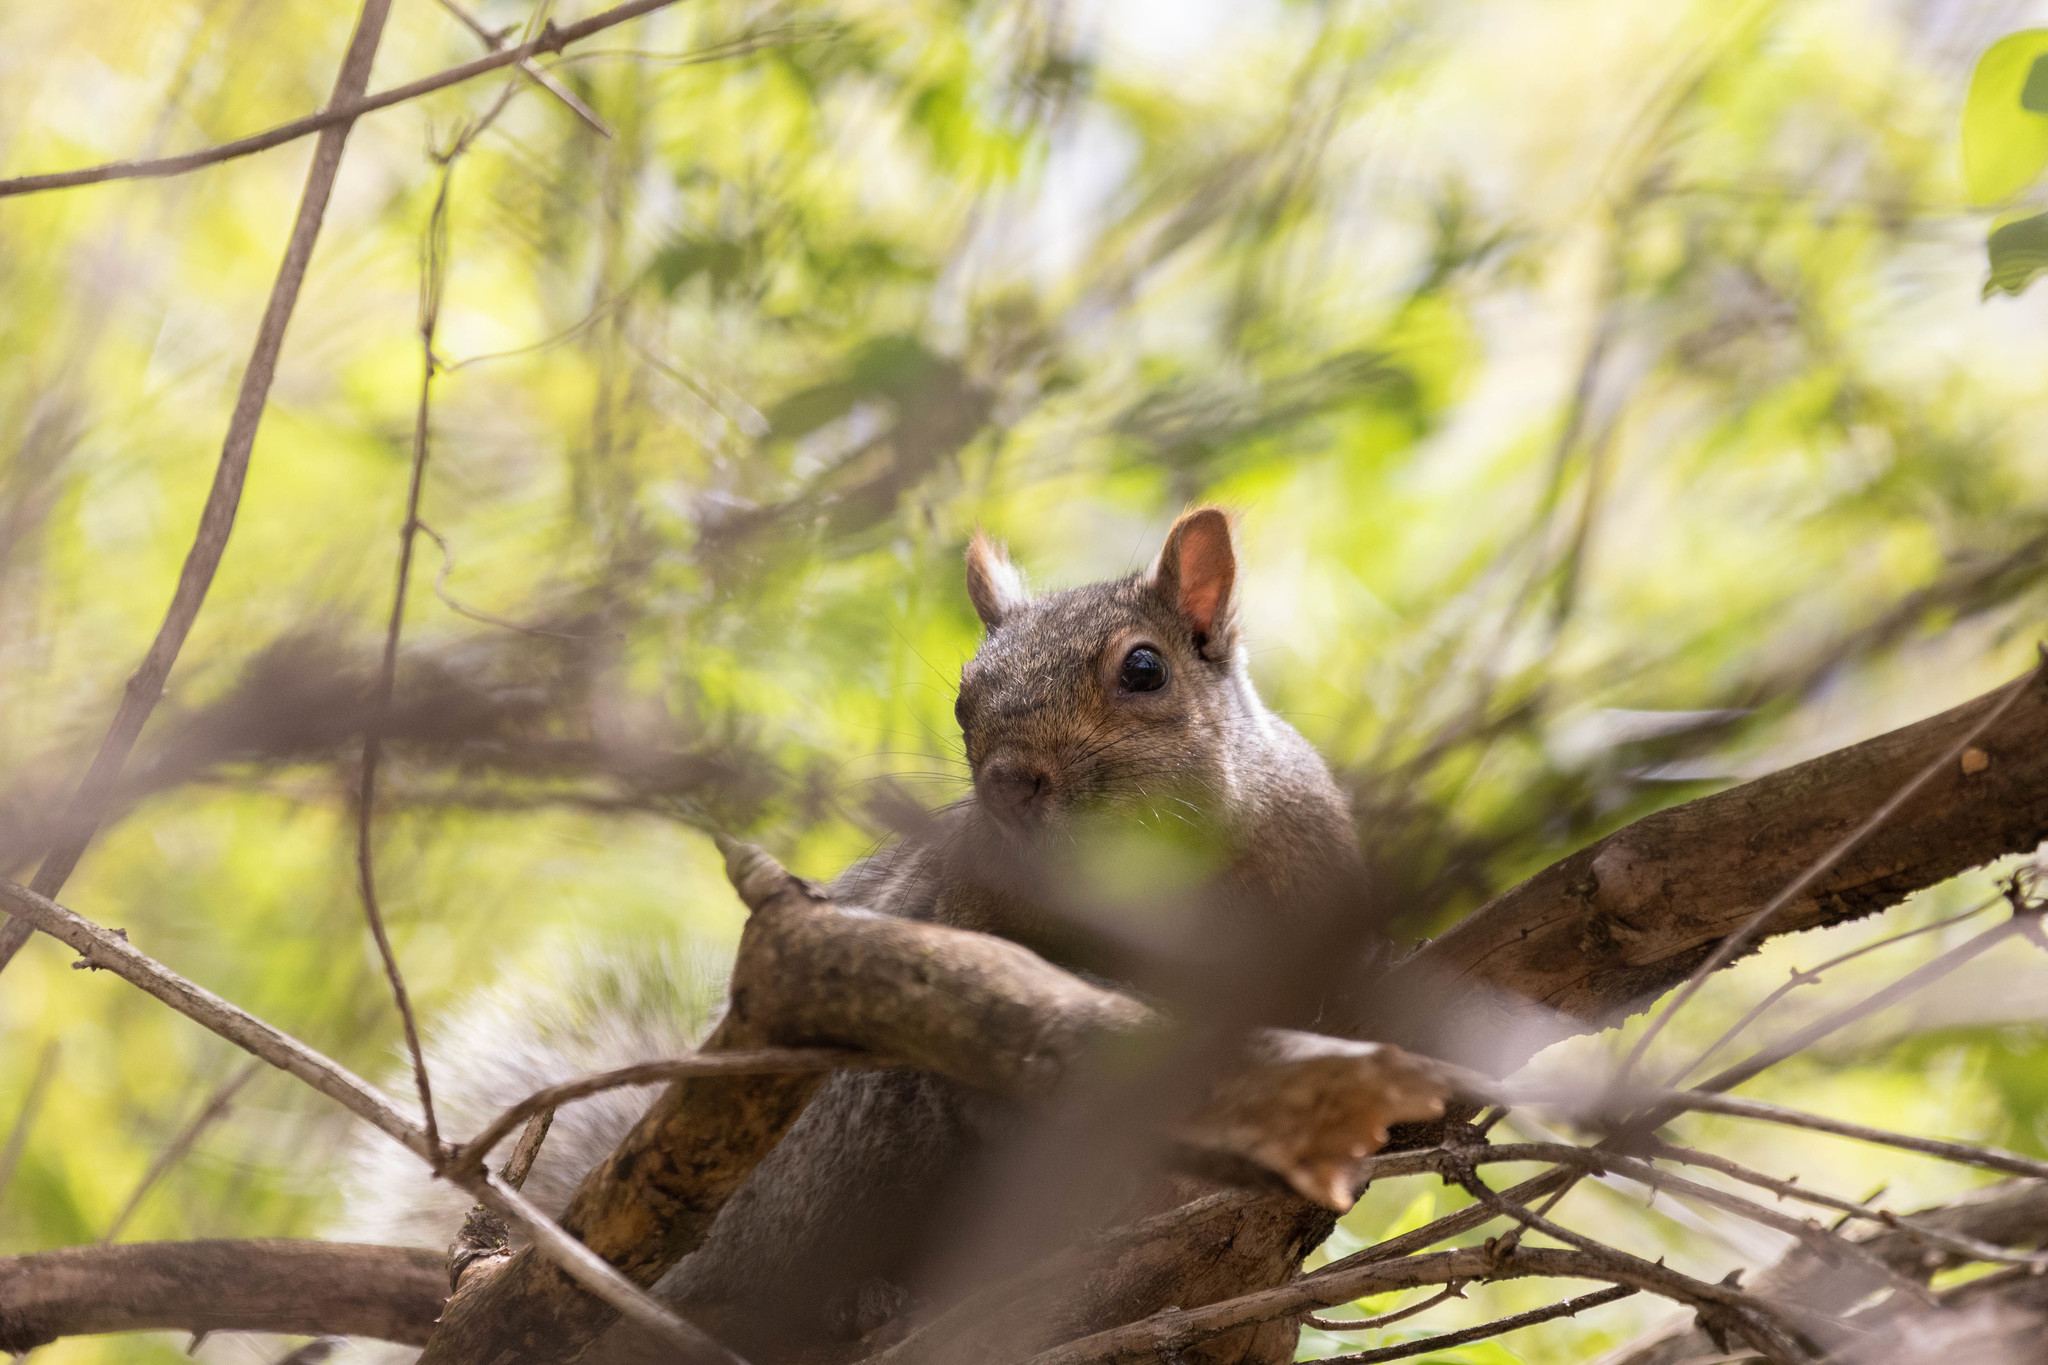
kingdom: Animalia
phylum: Chordata
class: Mammalia
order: Rodentia
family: Sciuridae
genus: Sciurus
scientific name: Sciurus carolinensis
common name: Eastern gray squirrel
